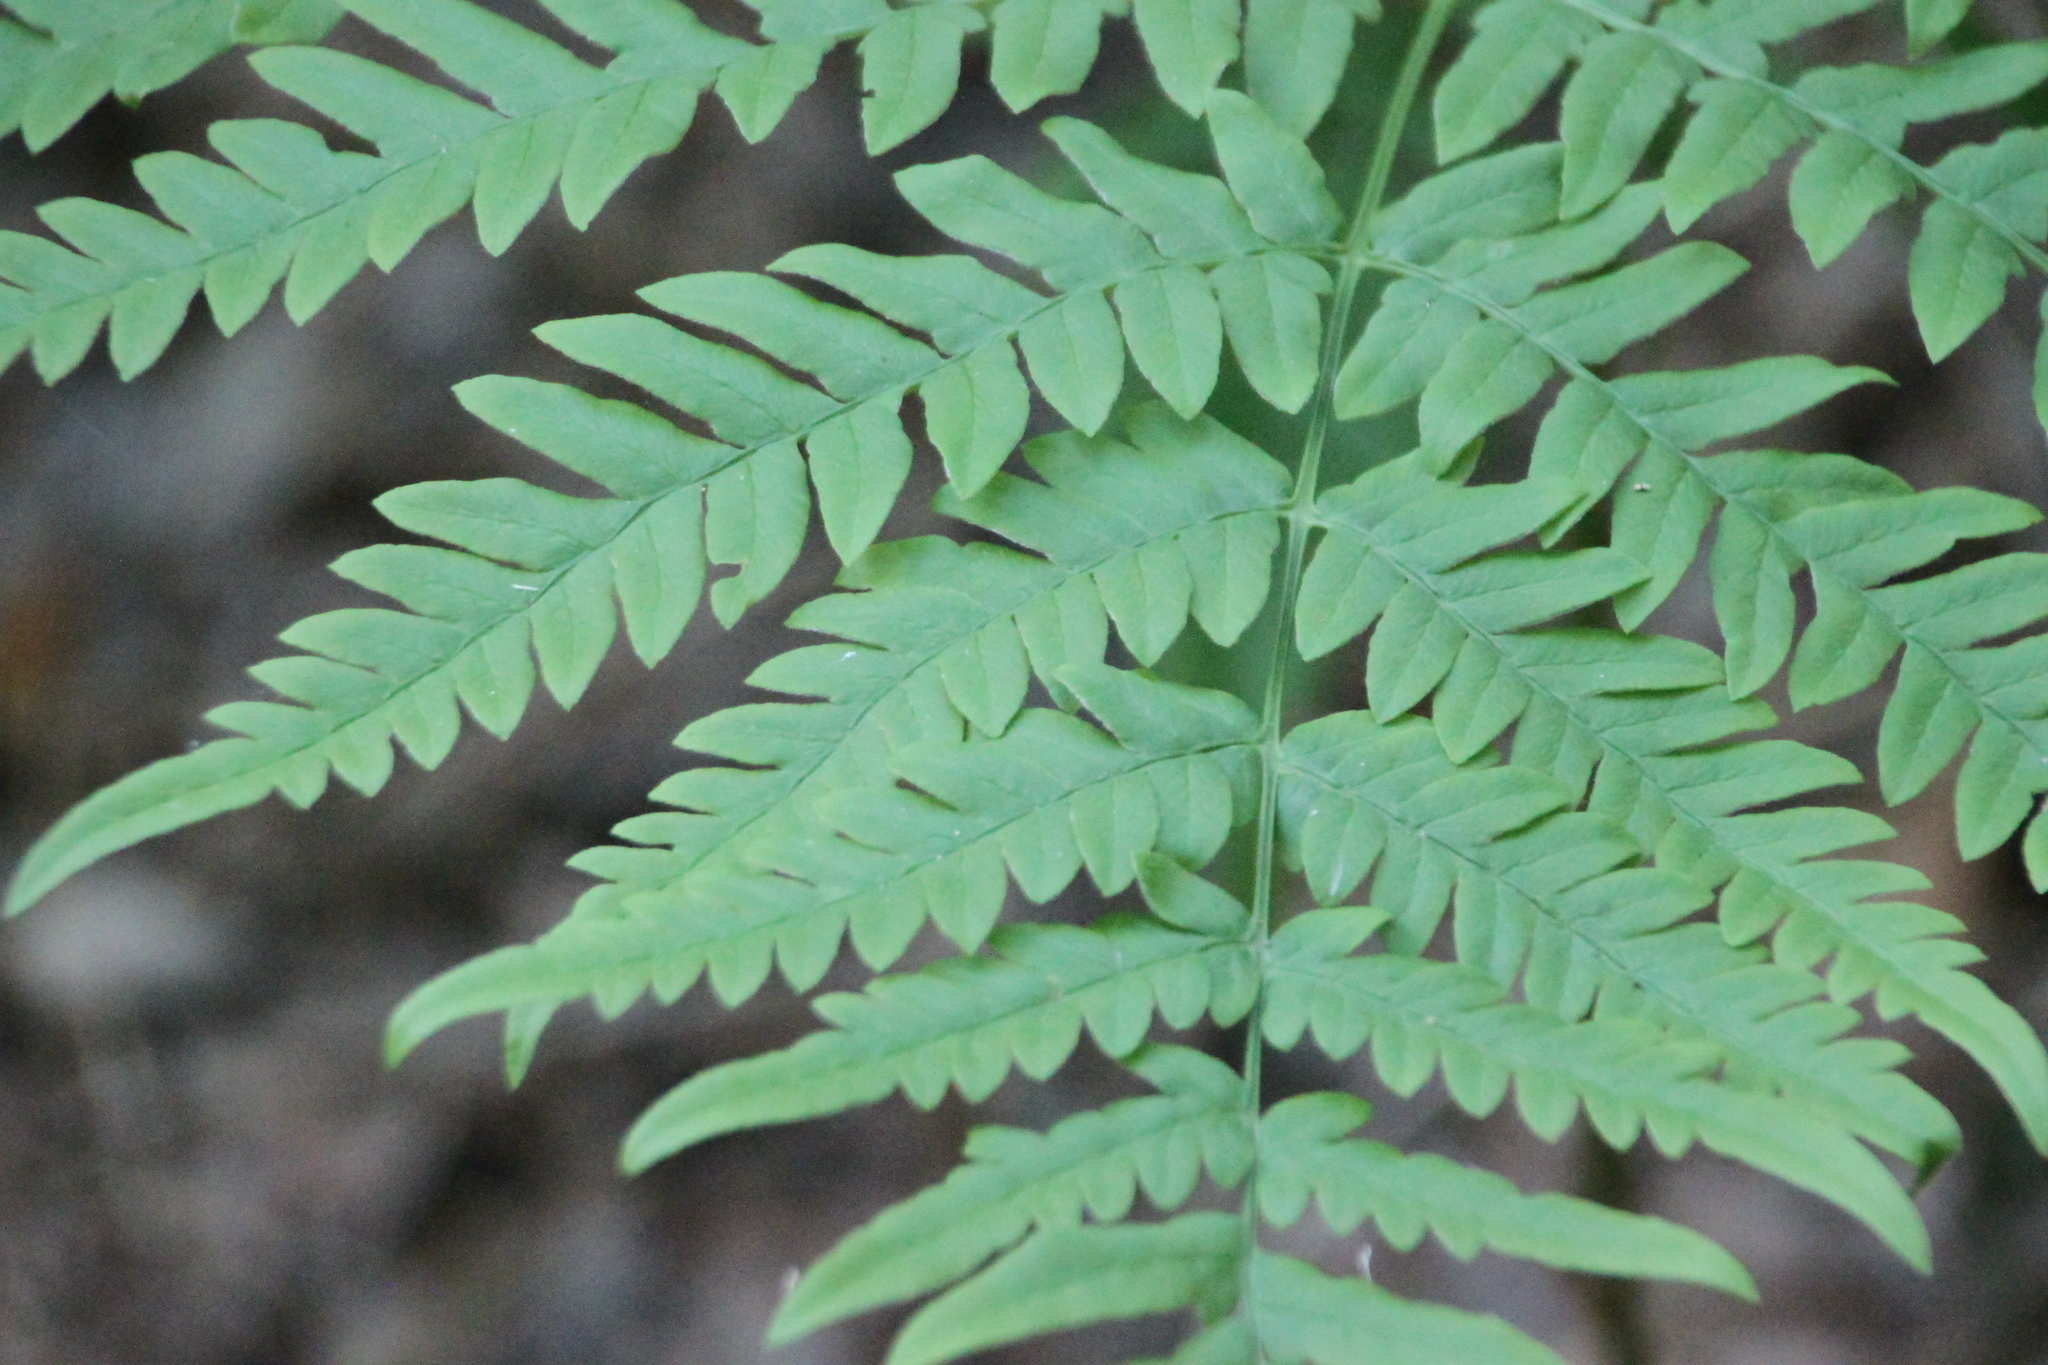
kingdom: Plantae
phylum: Tracheophyta
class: Polypodiopsida
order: Polypodiales
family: Dennstaedtiaceae
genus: Pteridium
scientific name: Pteridium aquilinum
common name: Bracken
